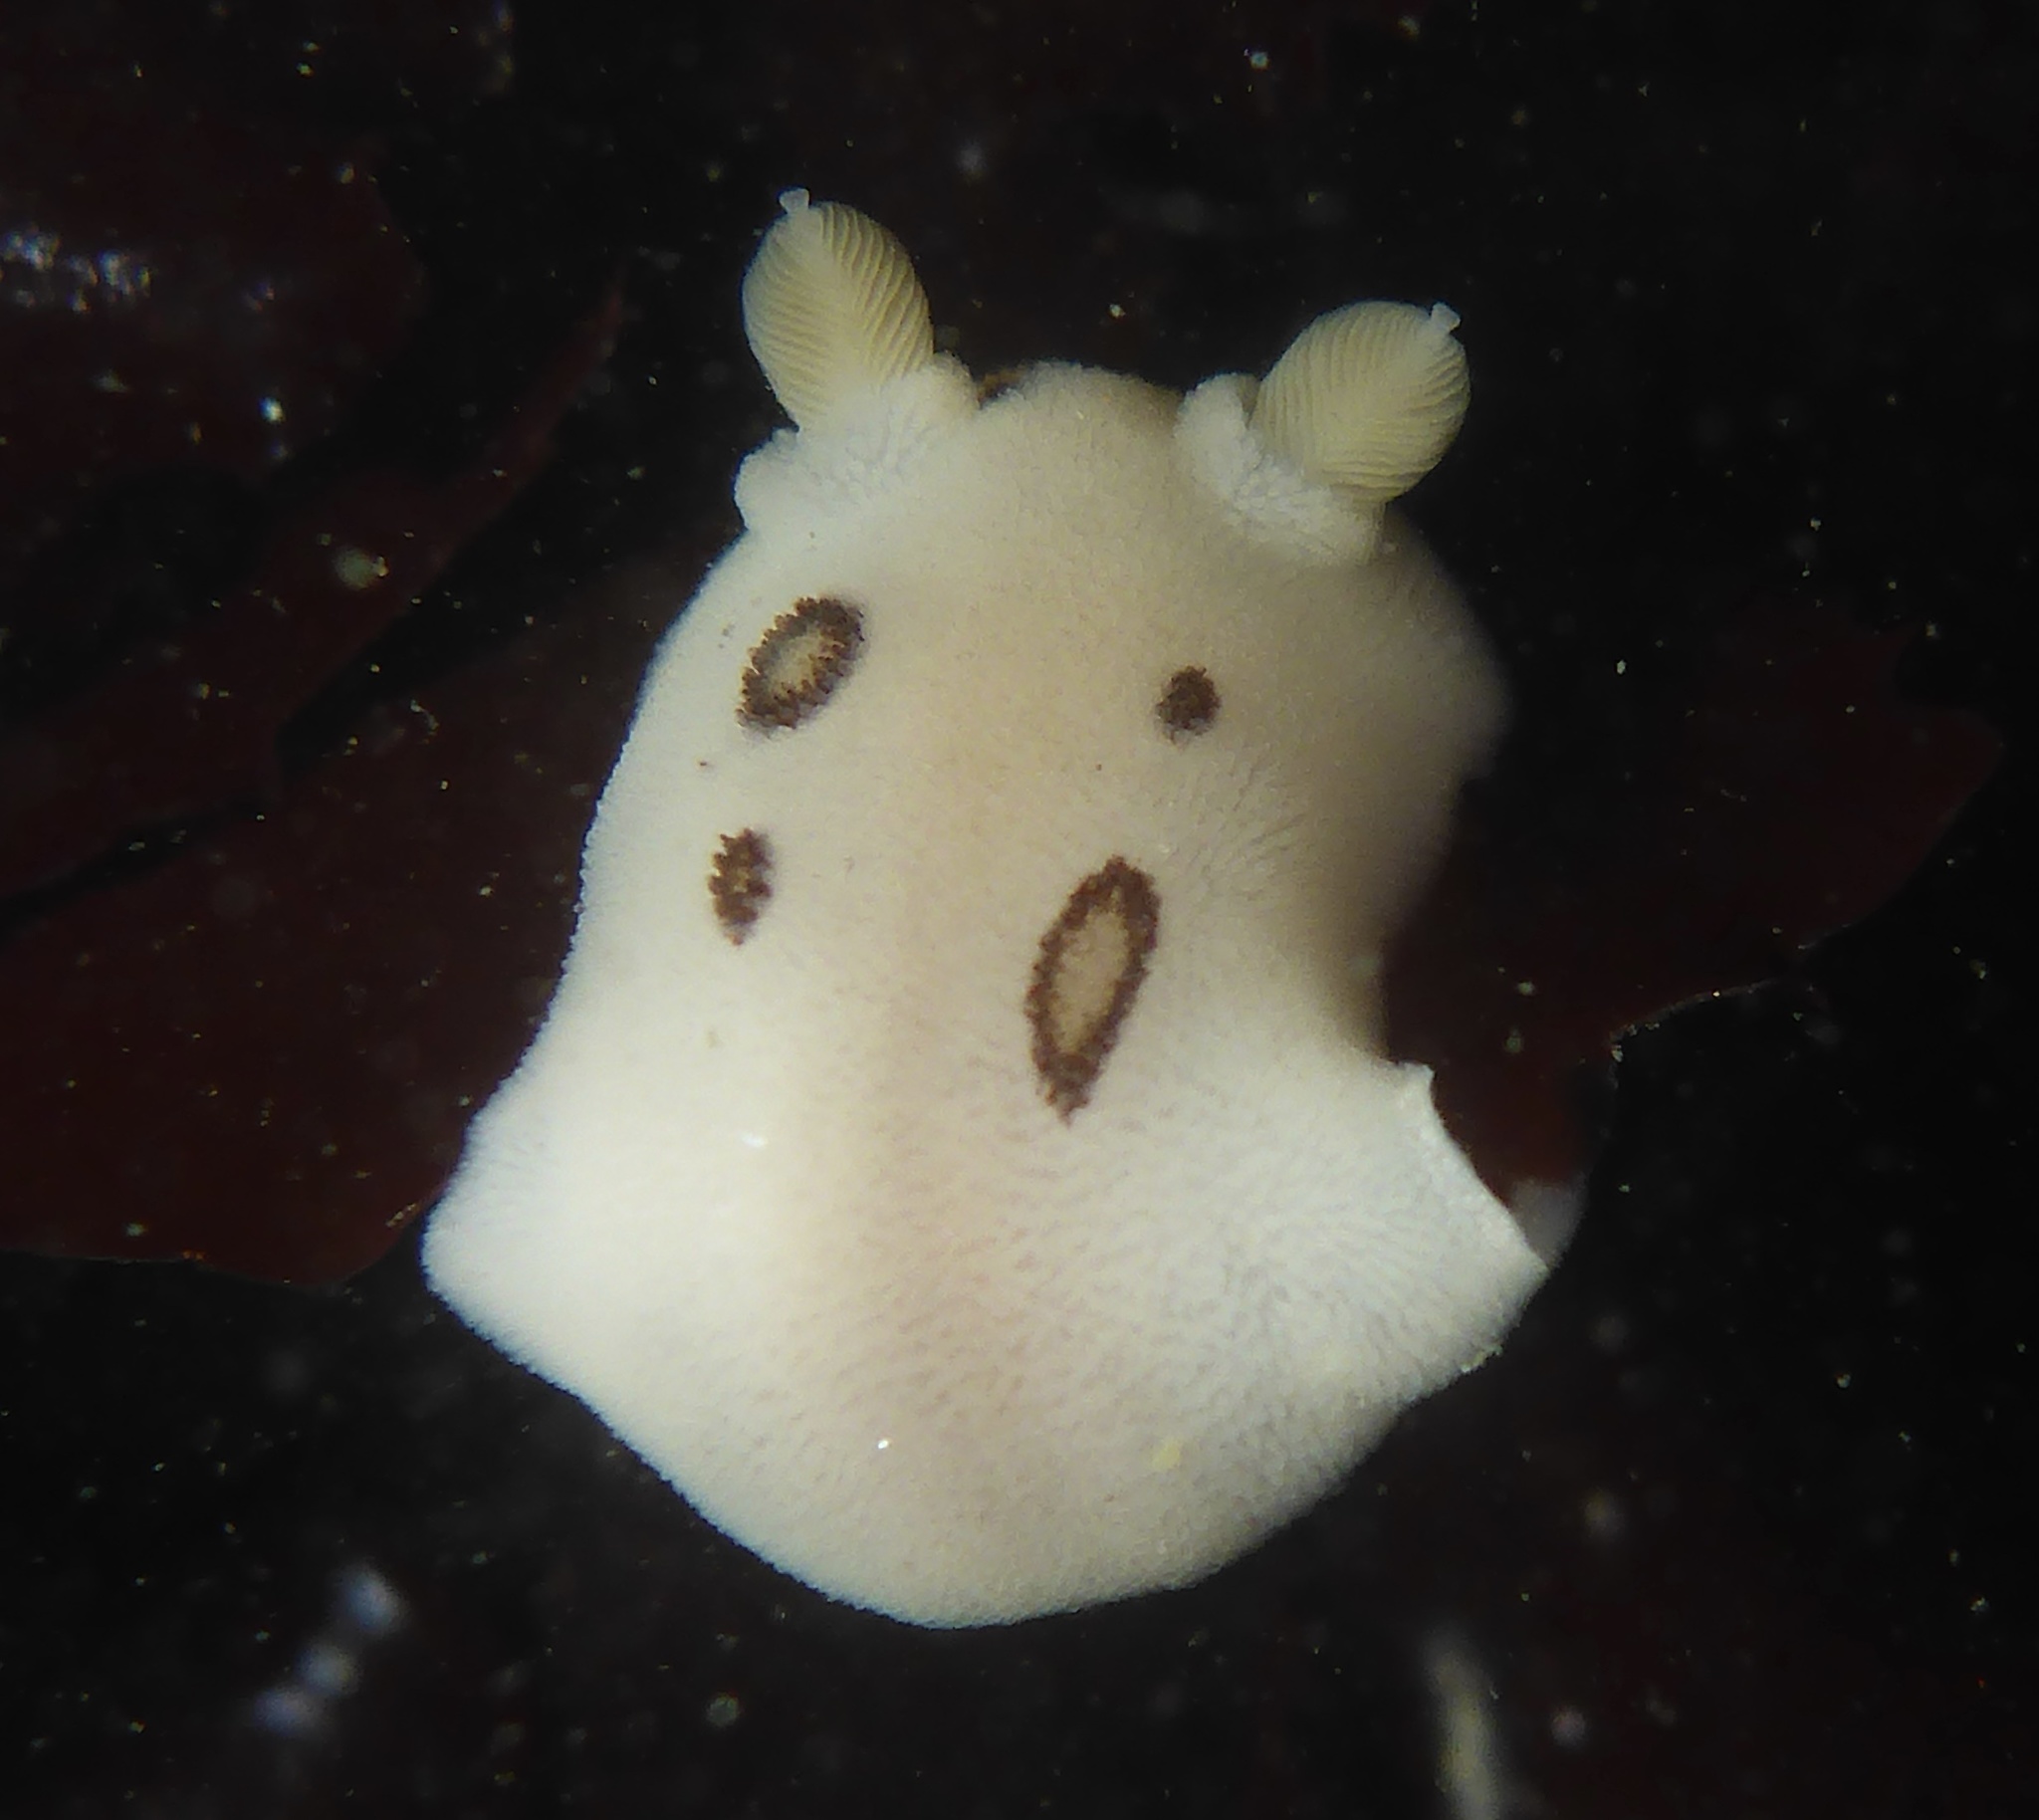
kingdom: Animalia
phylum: Mollusca
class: Gastropoda
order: Nudibranchia
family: Discodorididae
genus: Diaulula
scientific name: Diaulula sandiegensis
